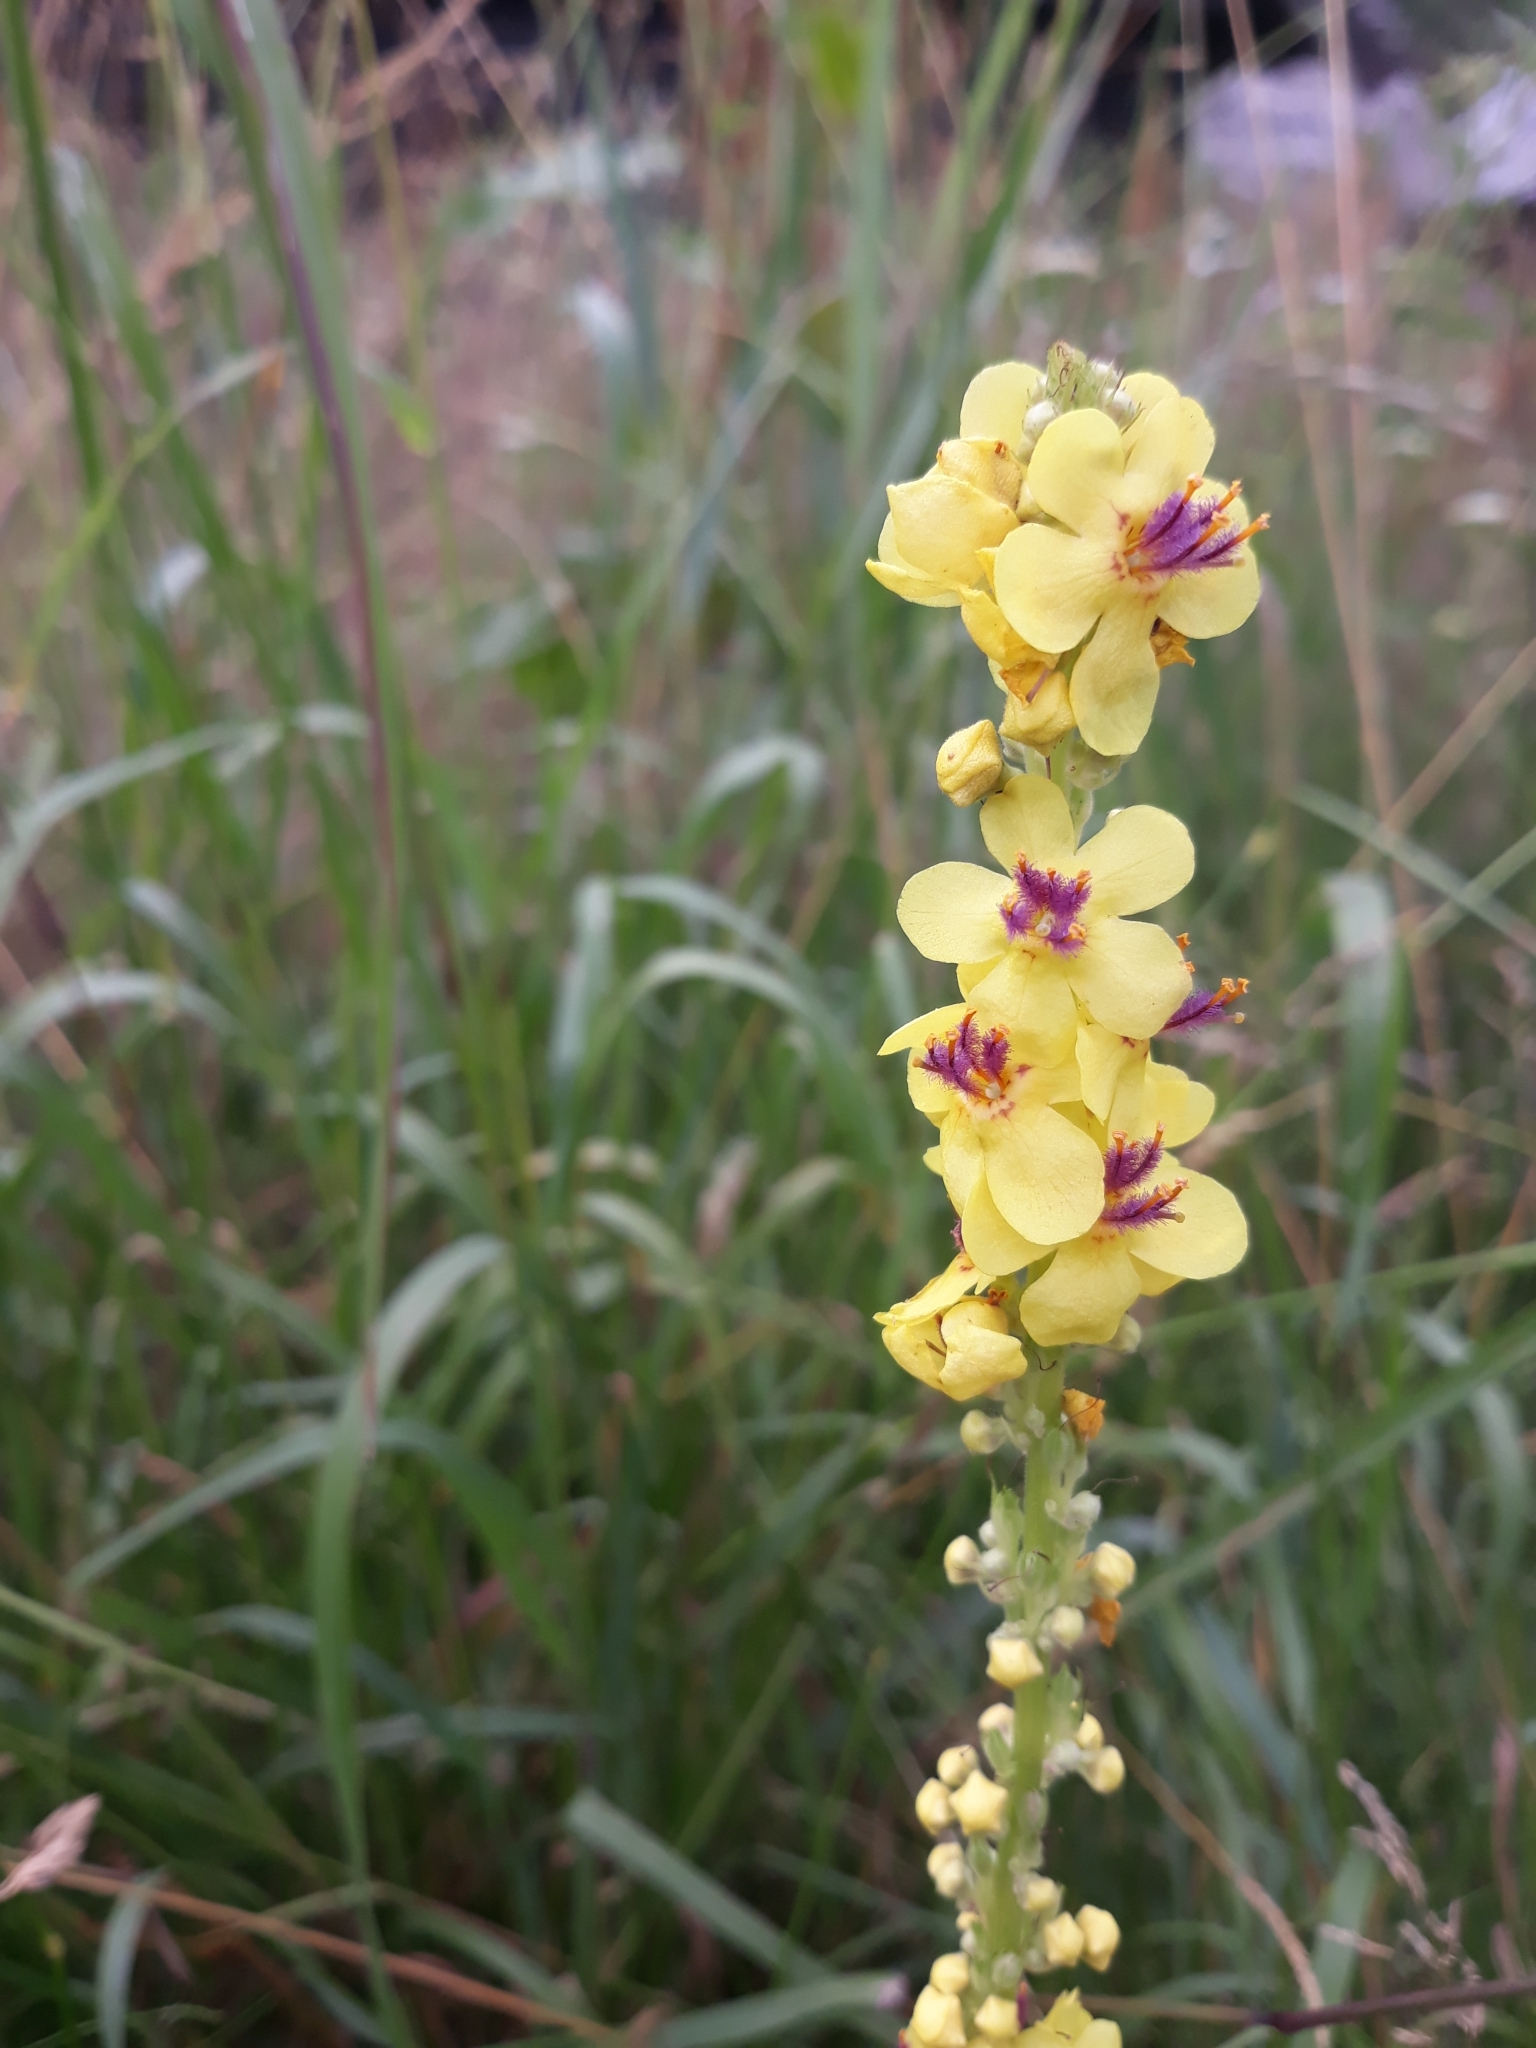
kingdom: Plantae
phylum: Tracheophyta
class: Magnoliopsida
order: Lamiales
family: Scrophulariaceae
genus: Verbascum
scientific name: Verbascum nigrum
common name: Dark mullein
